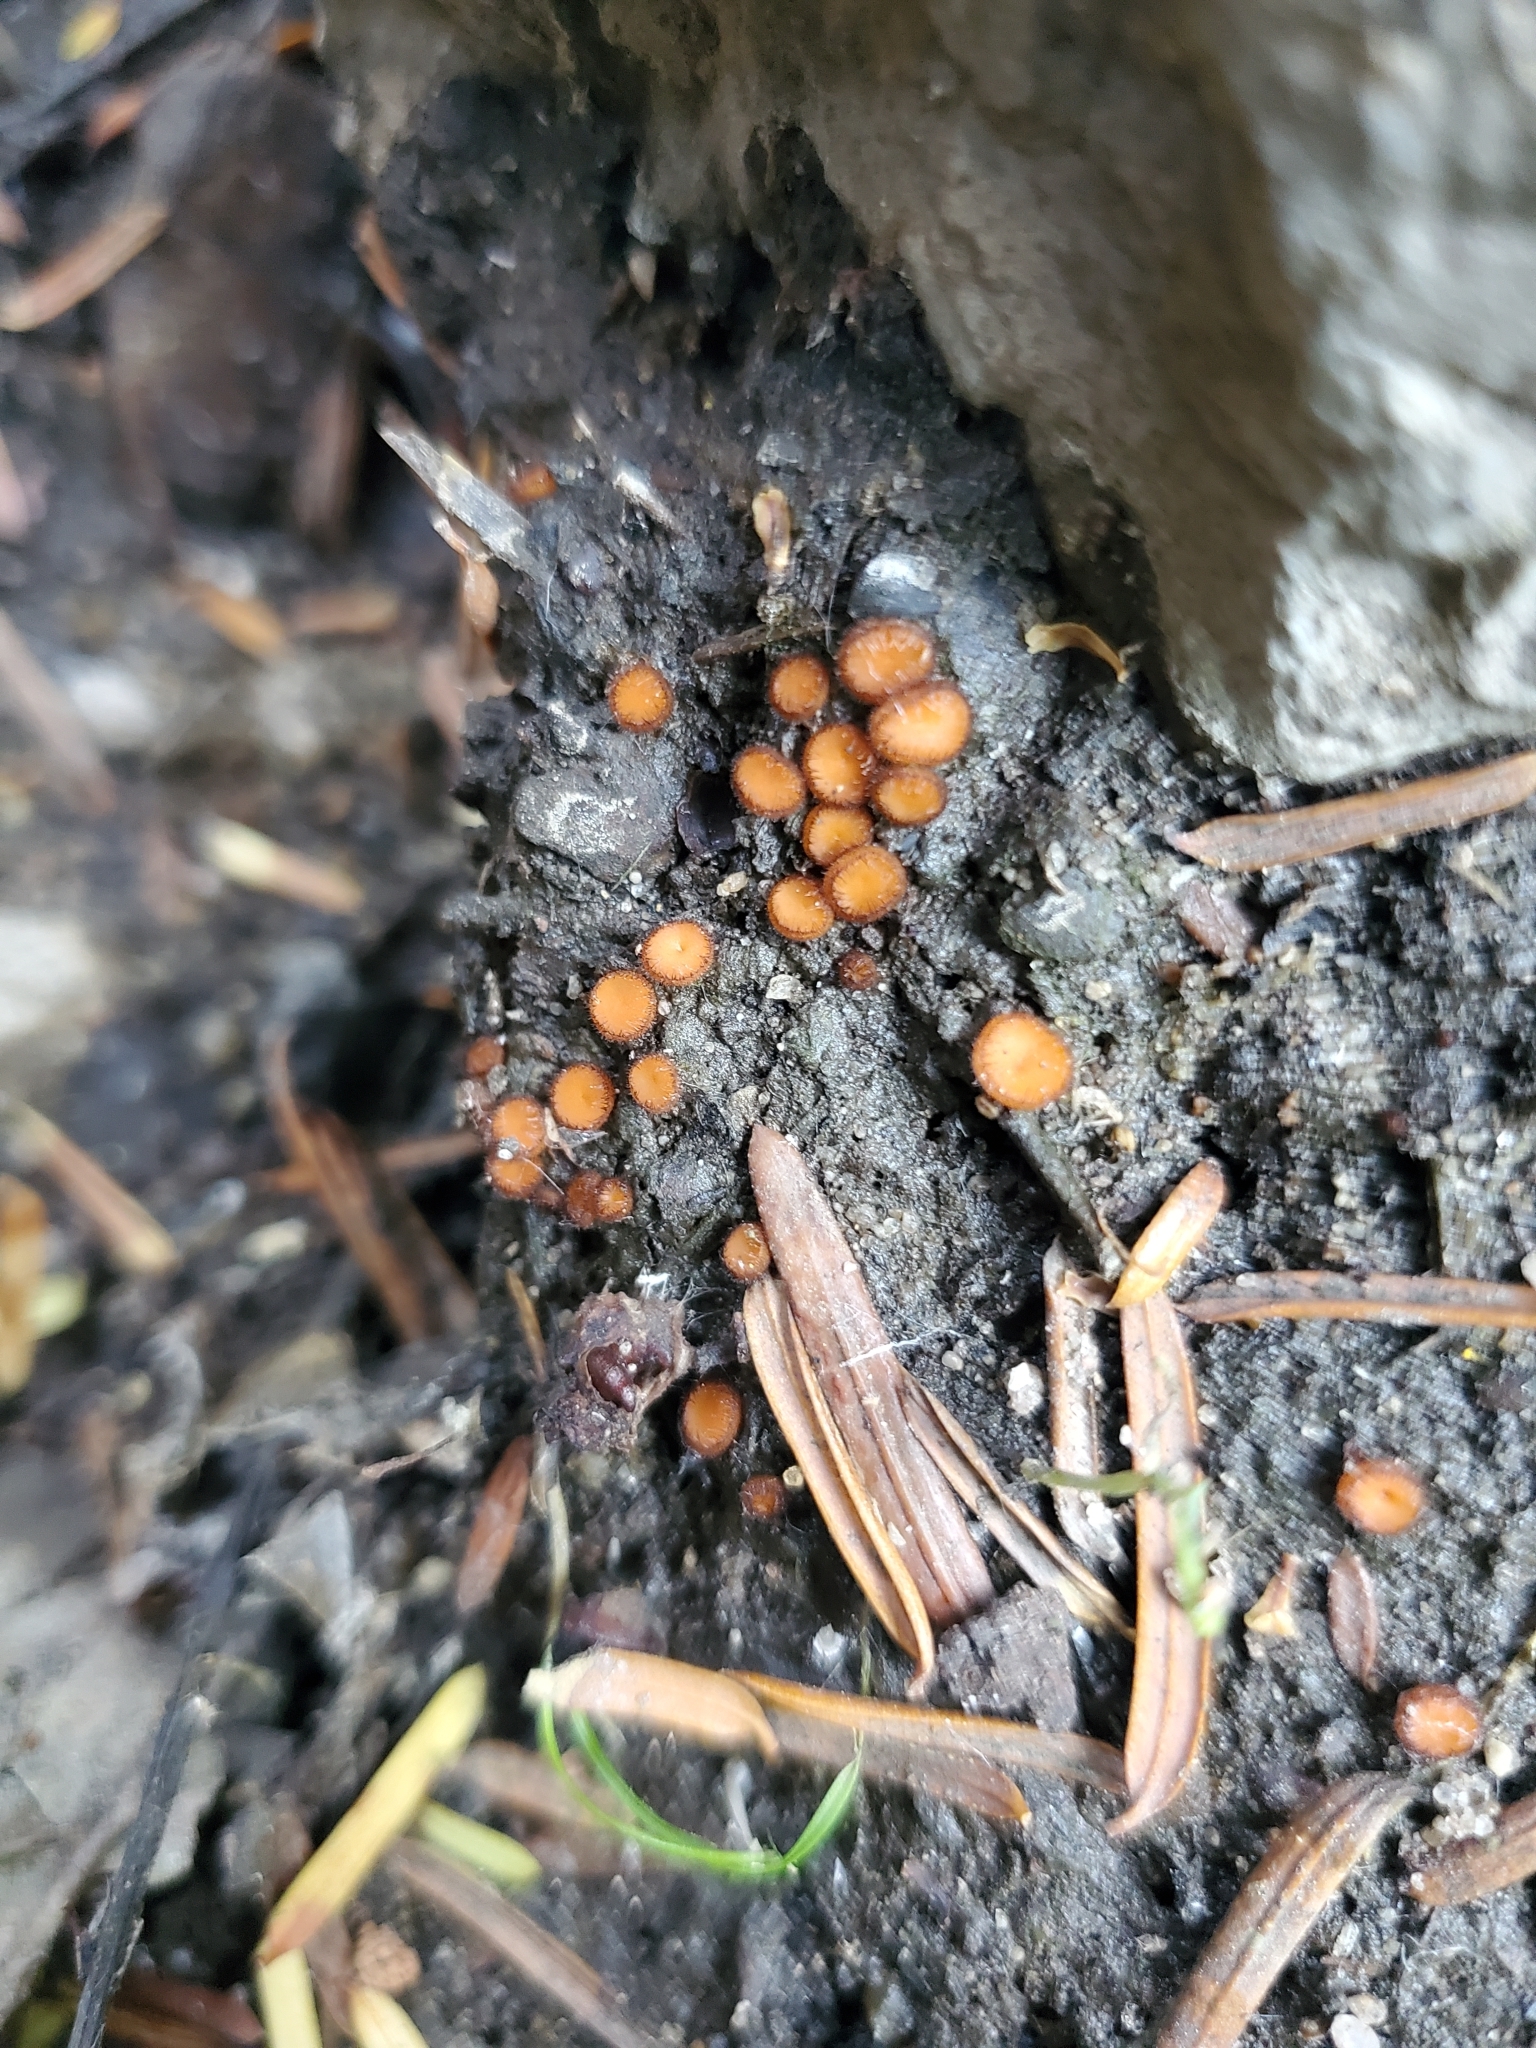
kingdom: Fungi
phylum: Ascomycota
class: Pezizomycetes
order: Pezizales
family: Pyronemataceae
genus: Scutellinia
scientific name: Scutellinia
